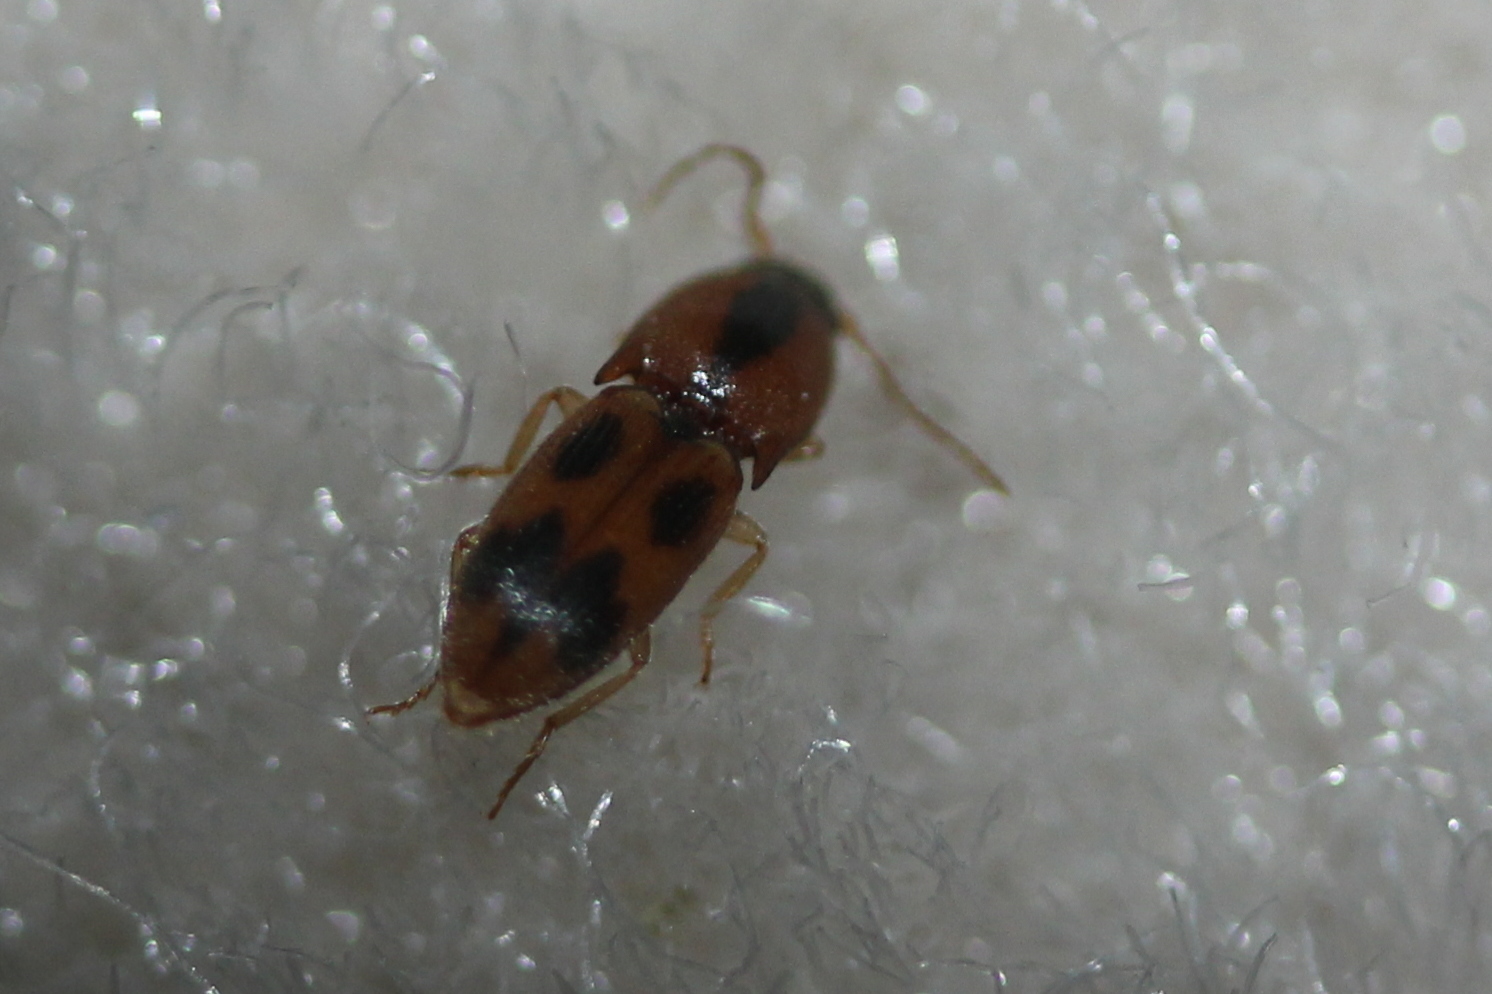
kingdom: Animalia
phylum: Arthropoda
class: Insecta
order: Coleoptera
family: Elateridae
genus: Aeolus
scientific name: Aeolus mellillus
